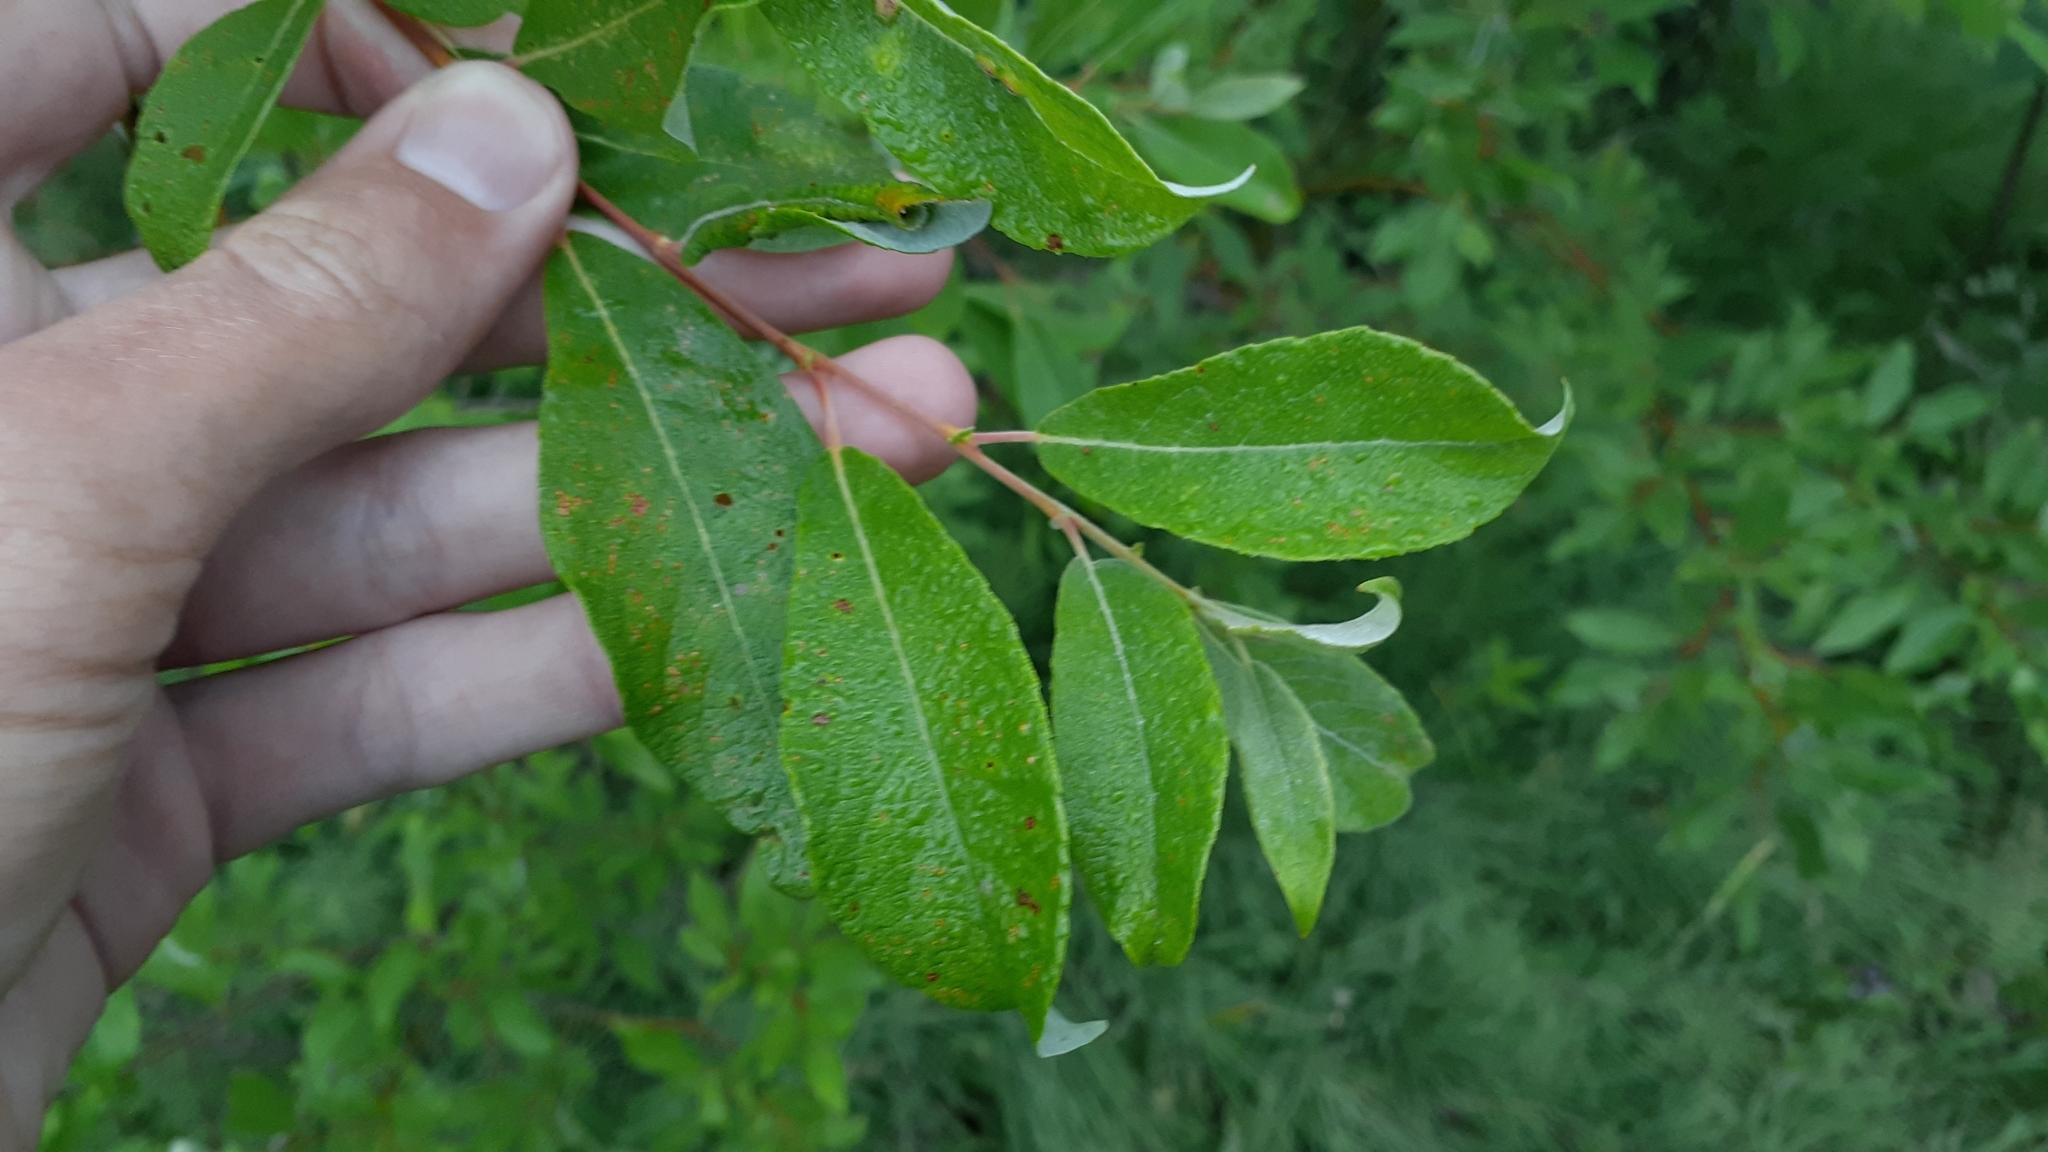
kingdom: Plantae
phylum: Tracheophyta
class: Magnoliopsida
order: Malpighiales
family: Salicaceae
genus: Salix
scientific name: Salix bebbiana
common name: Bebb's willow
